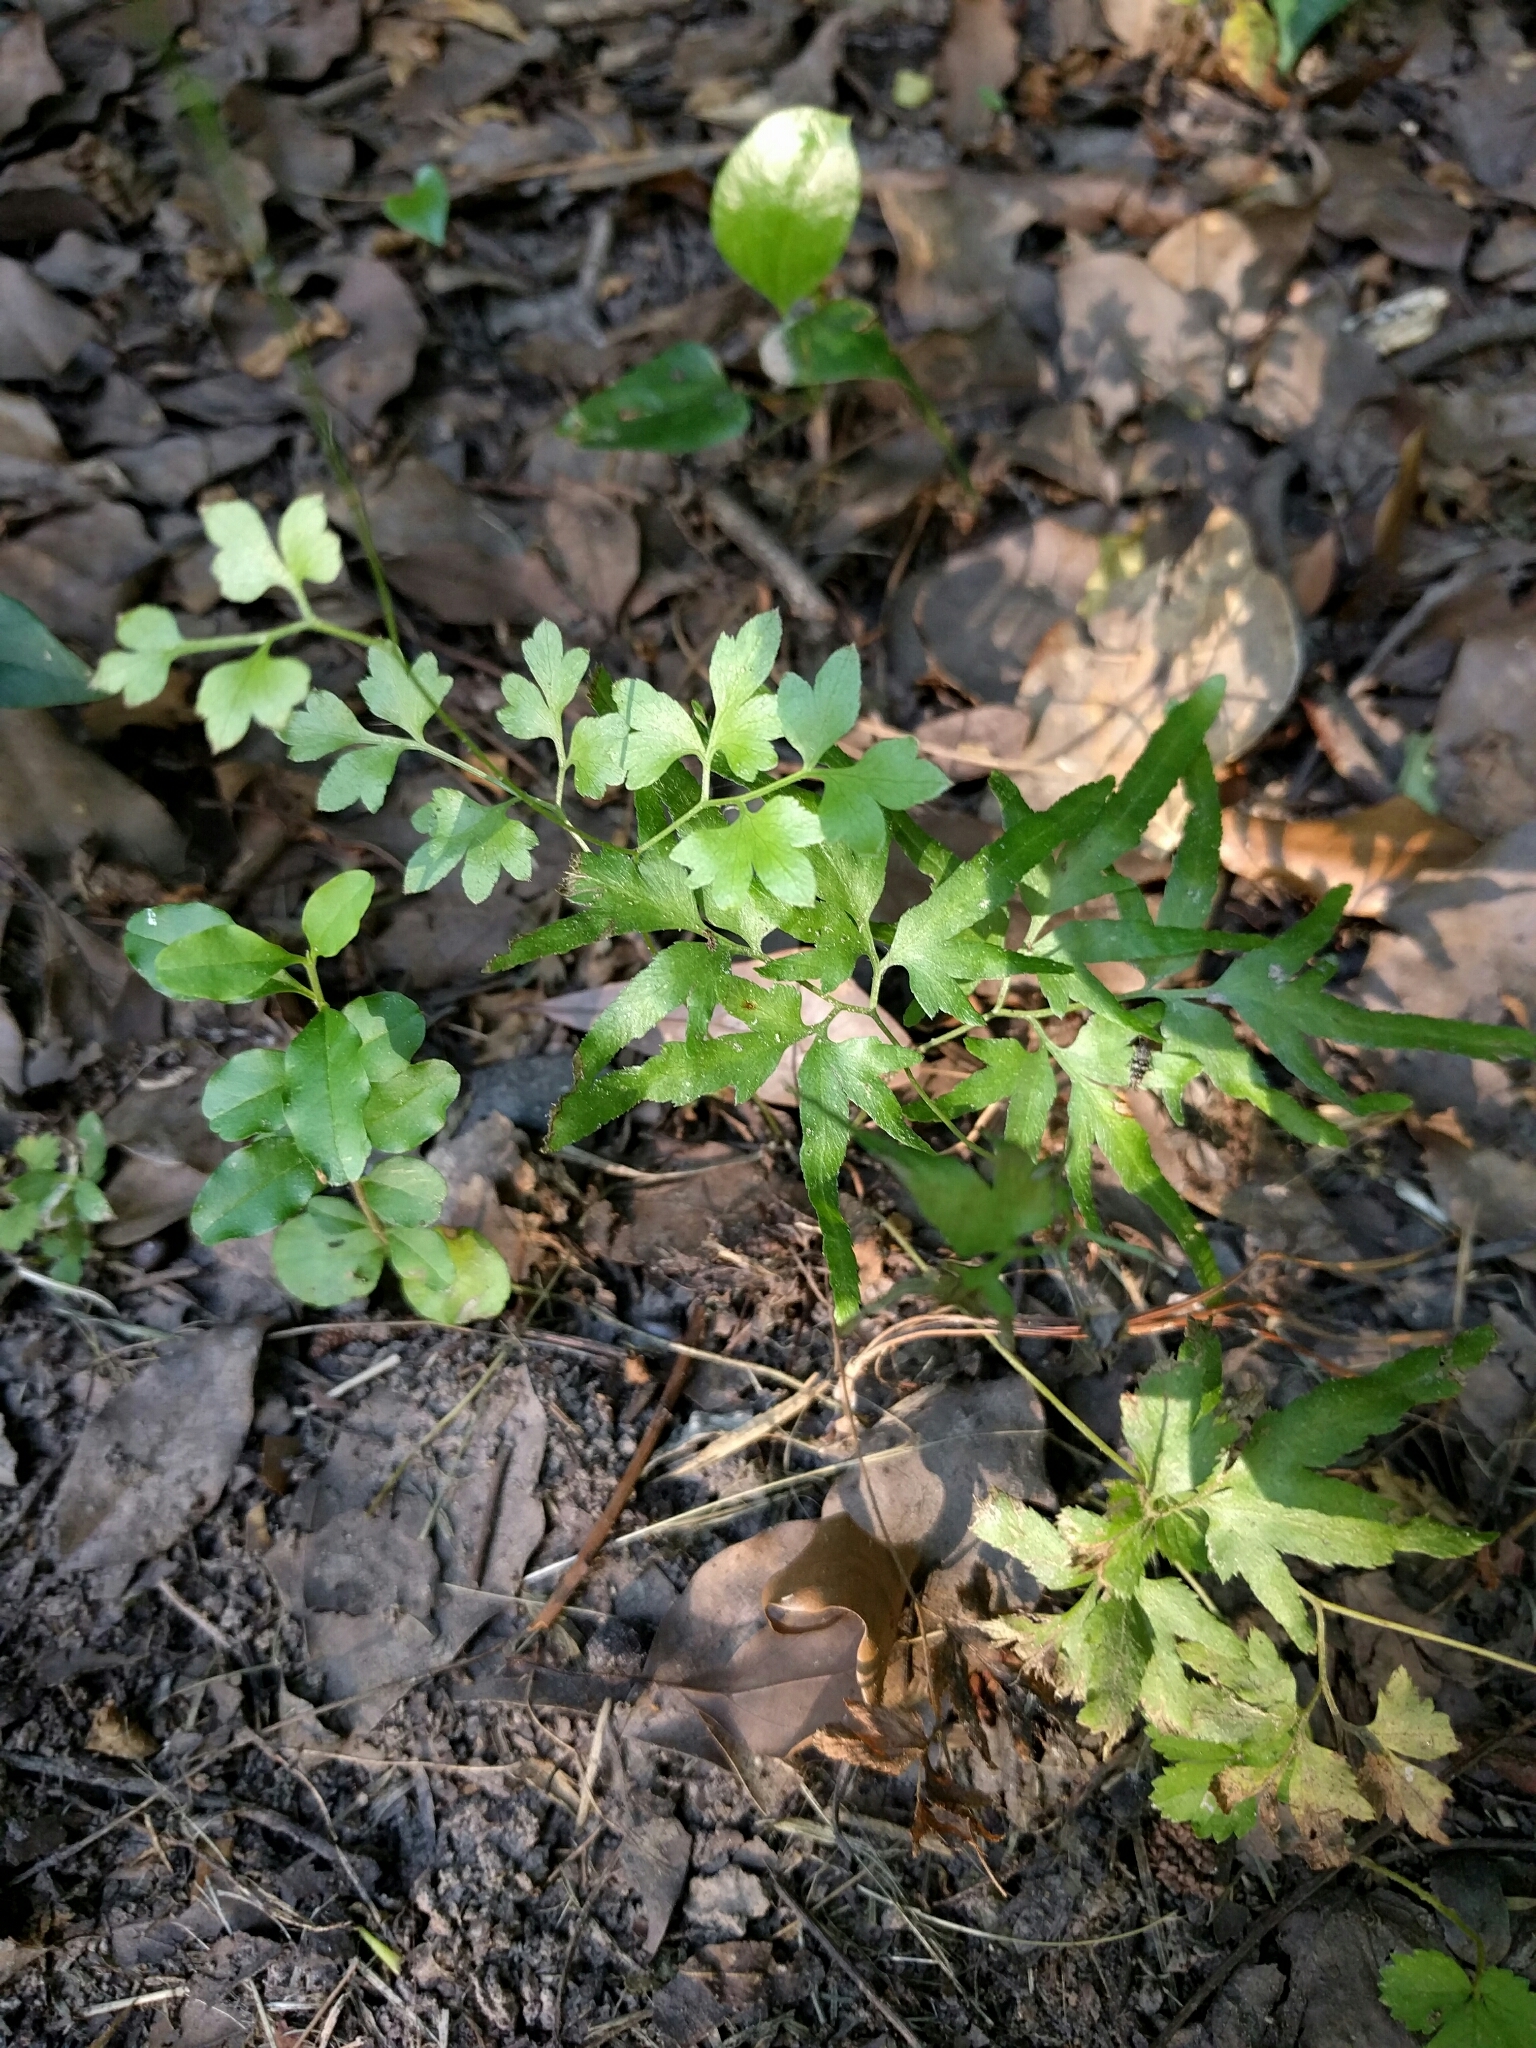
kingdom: Plantae
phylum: Tracheophyta
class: Polypodiopsida
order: Schizaeales
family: Lygodiaceae
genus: Lygodium
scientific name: Lygodium japonicum
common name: Japanese climbing fern
